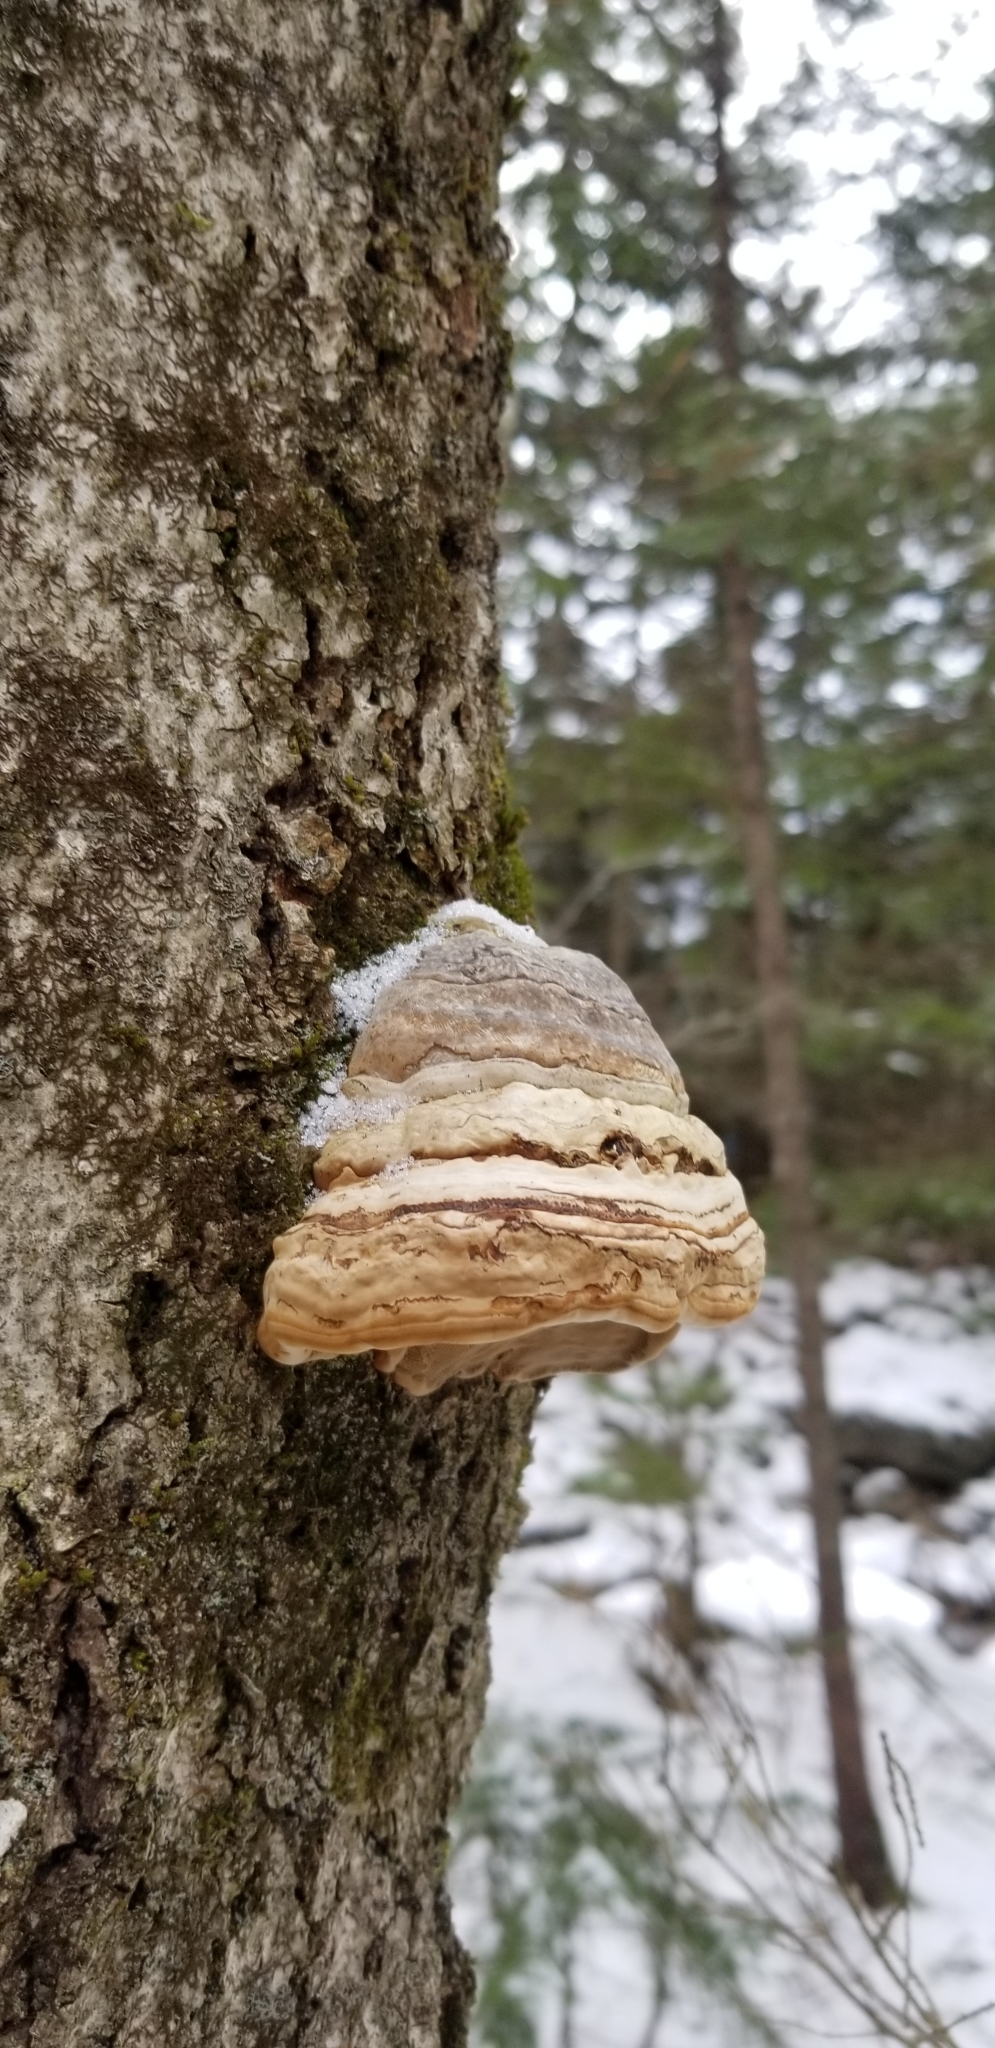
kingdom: Fungi
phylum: Basidiomycota
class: Agaricomycetes
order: Polyporales
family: Polyporaceae
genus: Fomes
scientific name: Fomes fomentarius
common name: Hoof fungus
